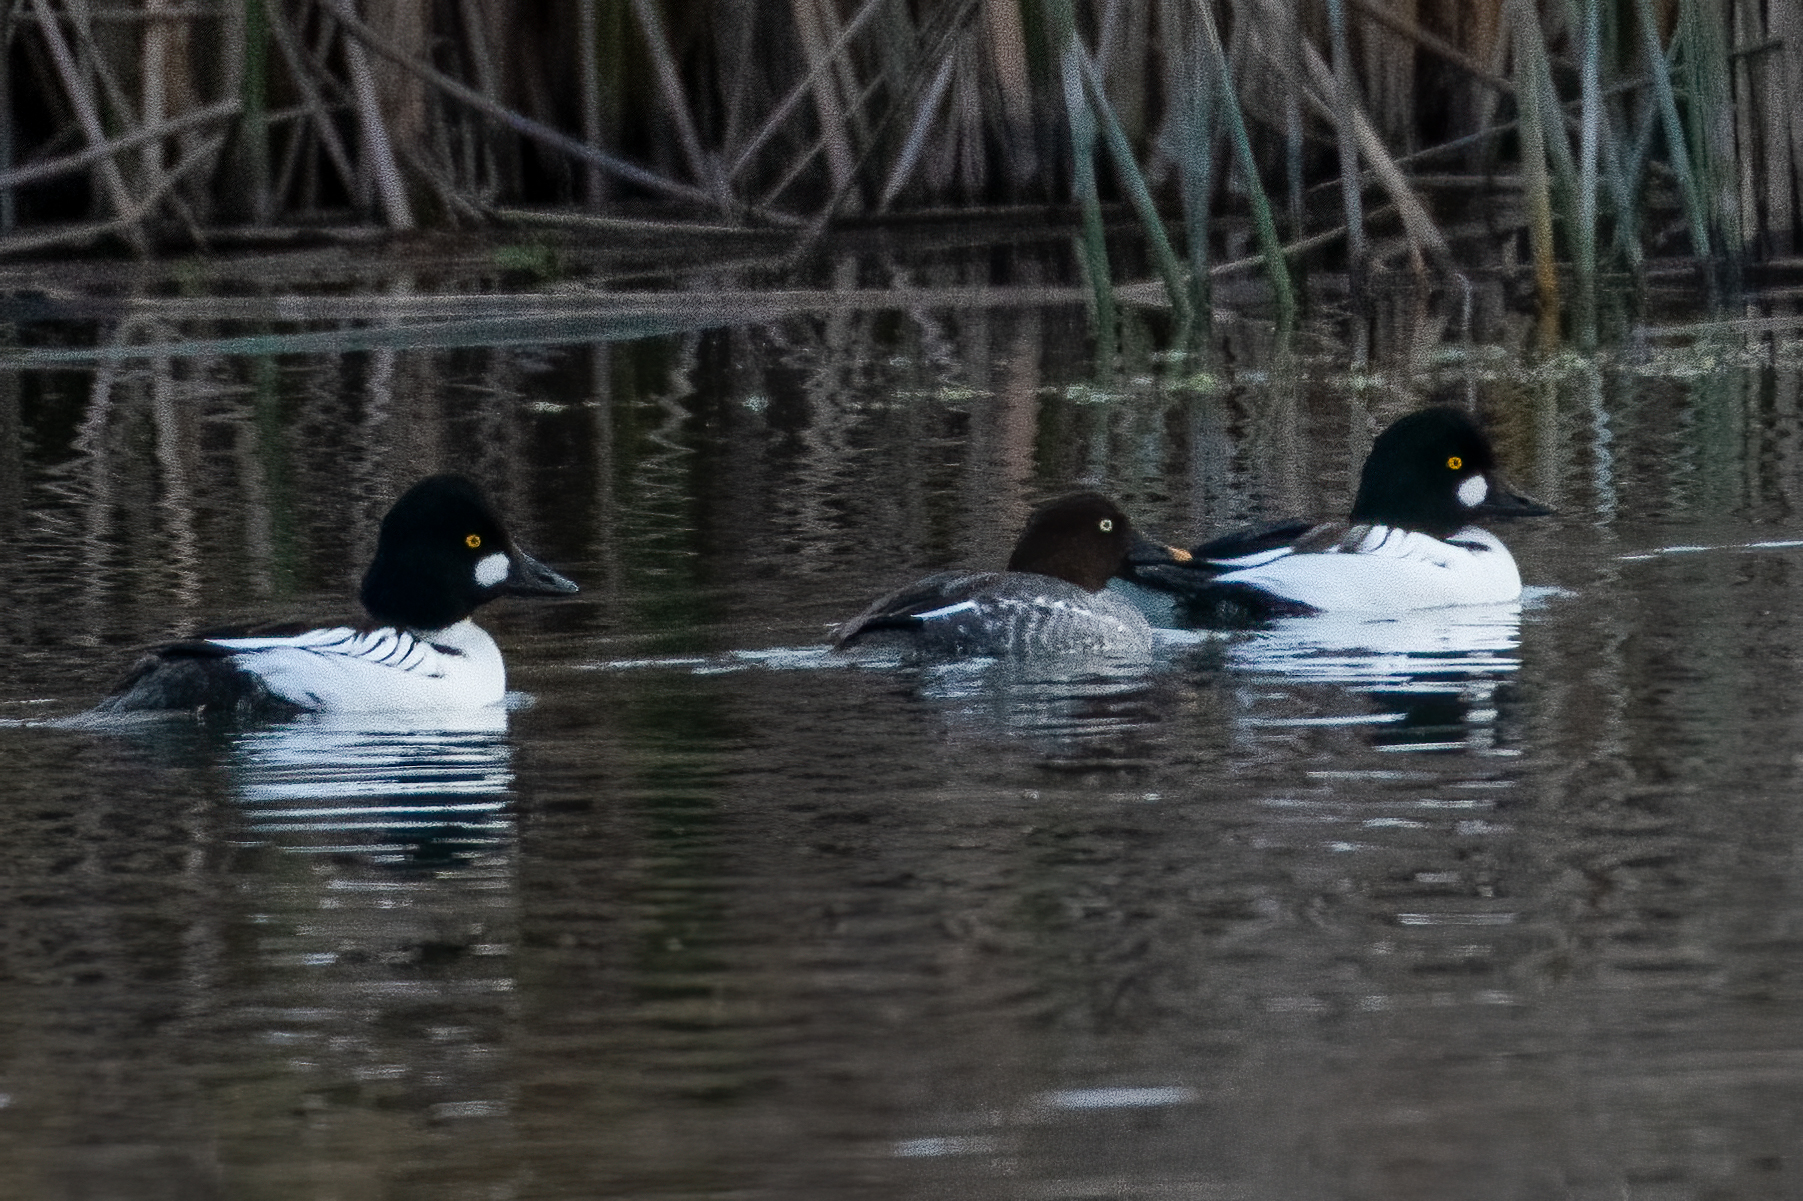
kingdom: Animalia
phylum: Chordata
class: Aves
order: Anseriformes
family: Anatidae
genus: Bucephala
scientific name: Bucephala clangula
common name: Common goldeneye
